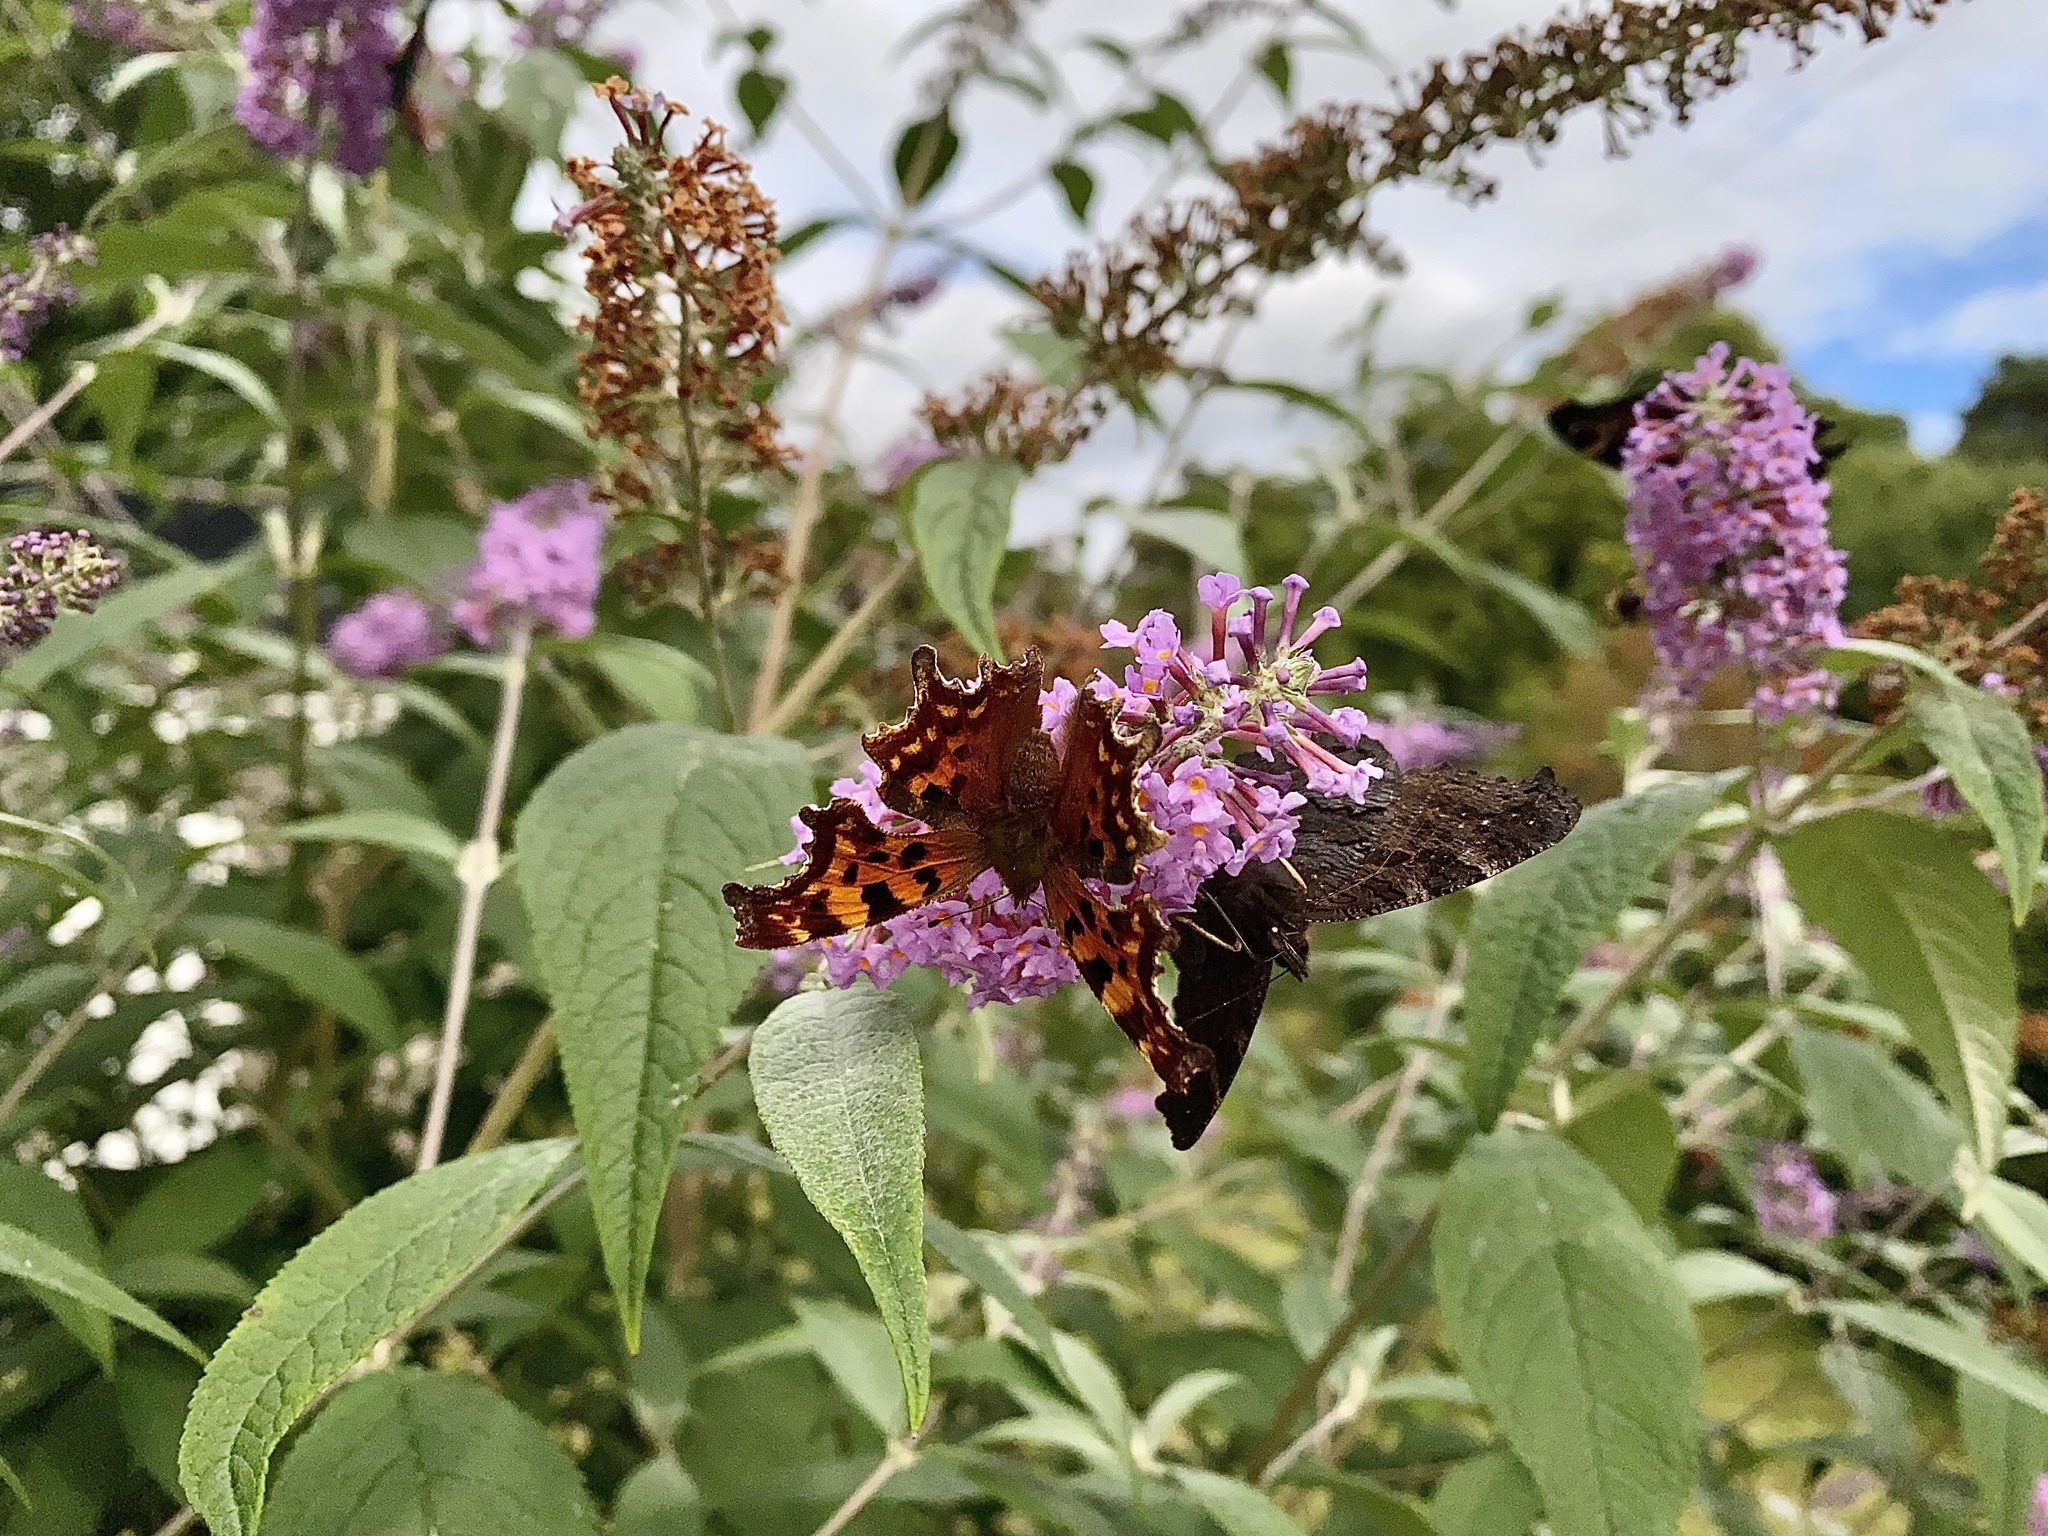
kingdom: Animalia
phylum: Arthropoda
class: Insecta
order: Lepidoptera
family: Nymphalidae
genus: Polygonia
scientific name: Polygonia c-album
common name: Comma
